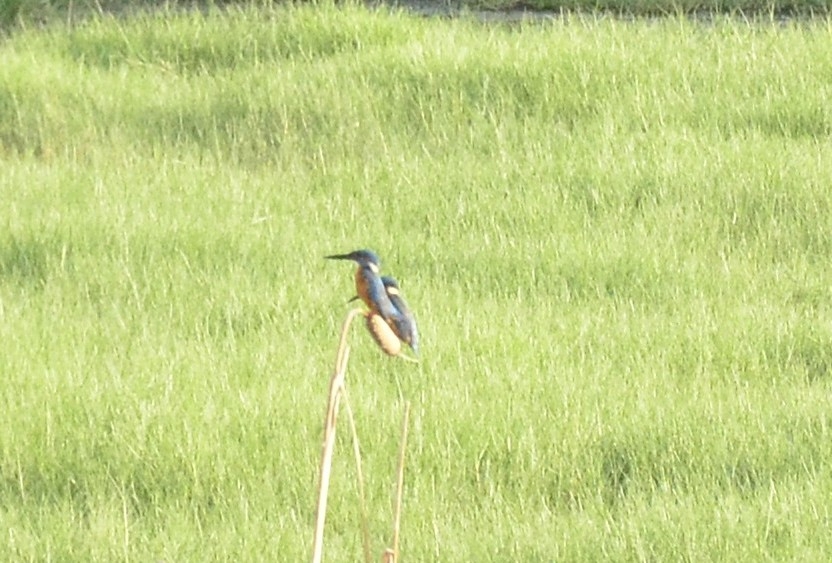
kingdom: Animalia
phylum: Chordata
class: Aves
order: Coraciiformes
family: Alcedinidae
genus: Alcedo
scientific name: Alcedo atthis
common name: Common kingfisher
